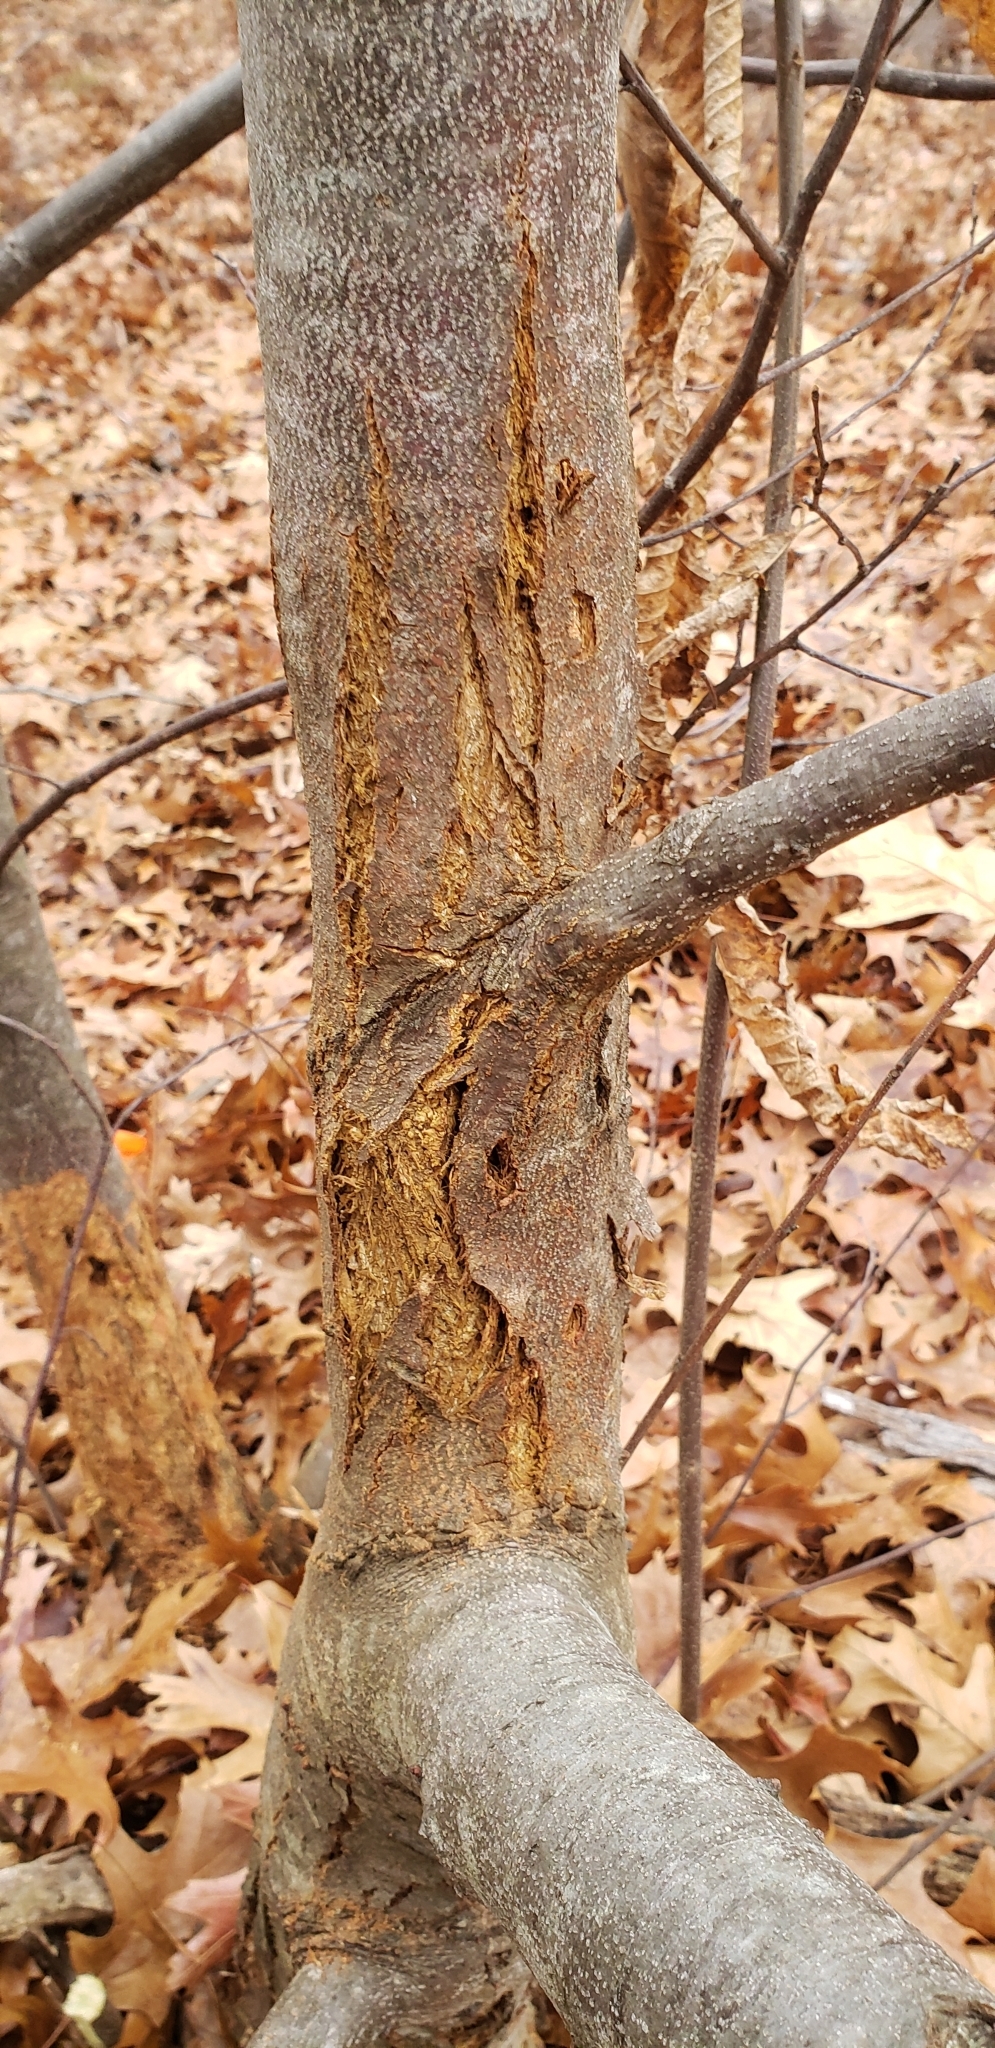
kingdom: Fungi
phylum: Ascomycota
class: Sordariomycetes
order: Diaporthales
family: Cryphonectriaceae
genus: Cryphonectria
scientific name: Cryphonectria parasitica
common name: Chestnut blight
